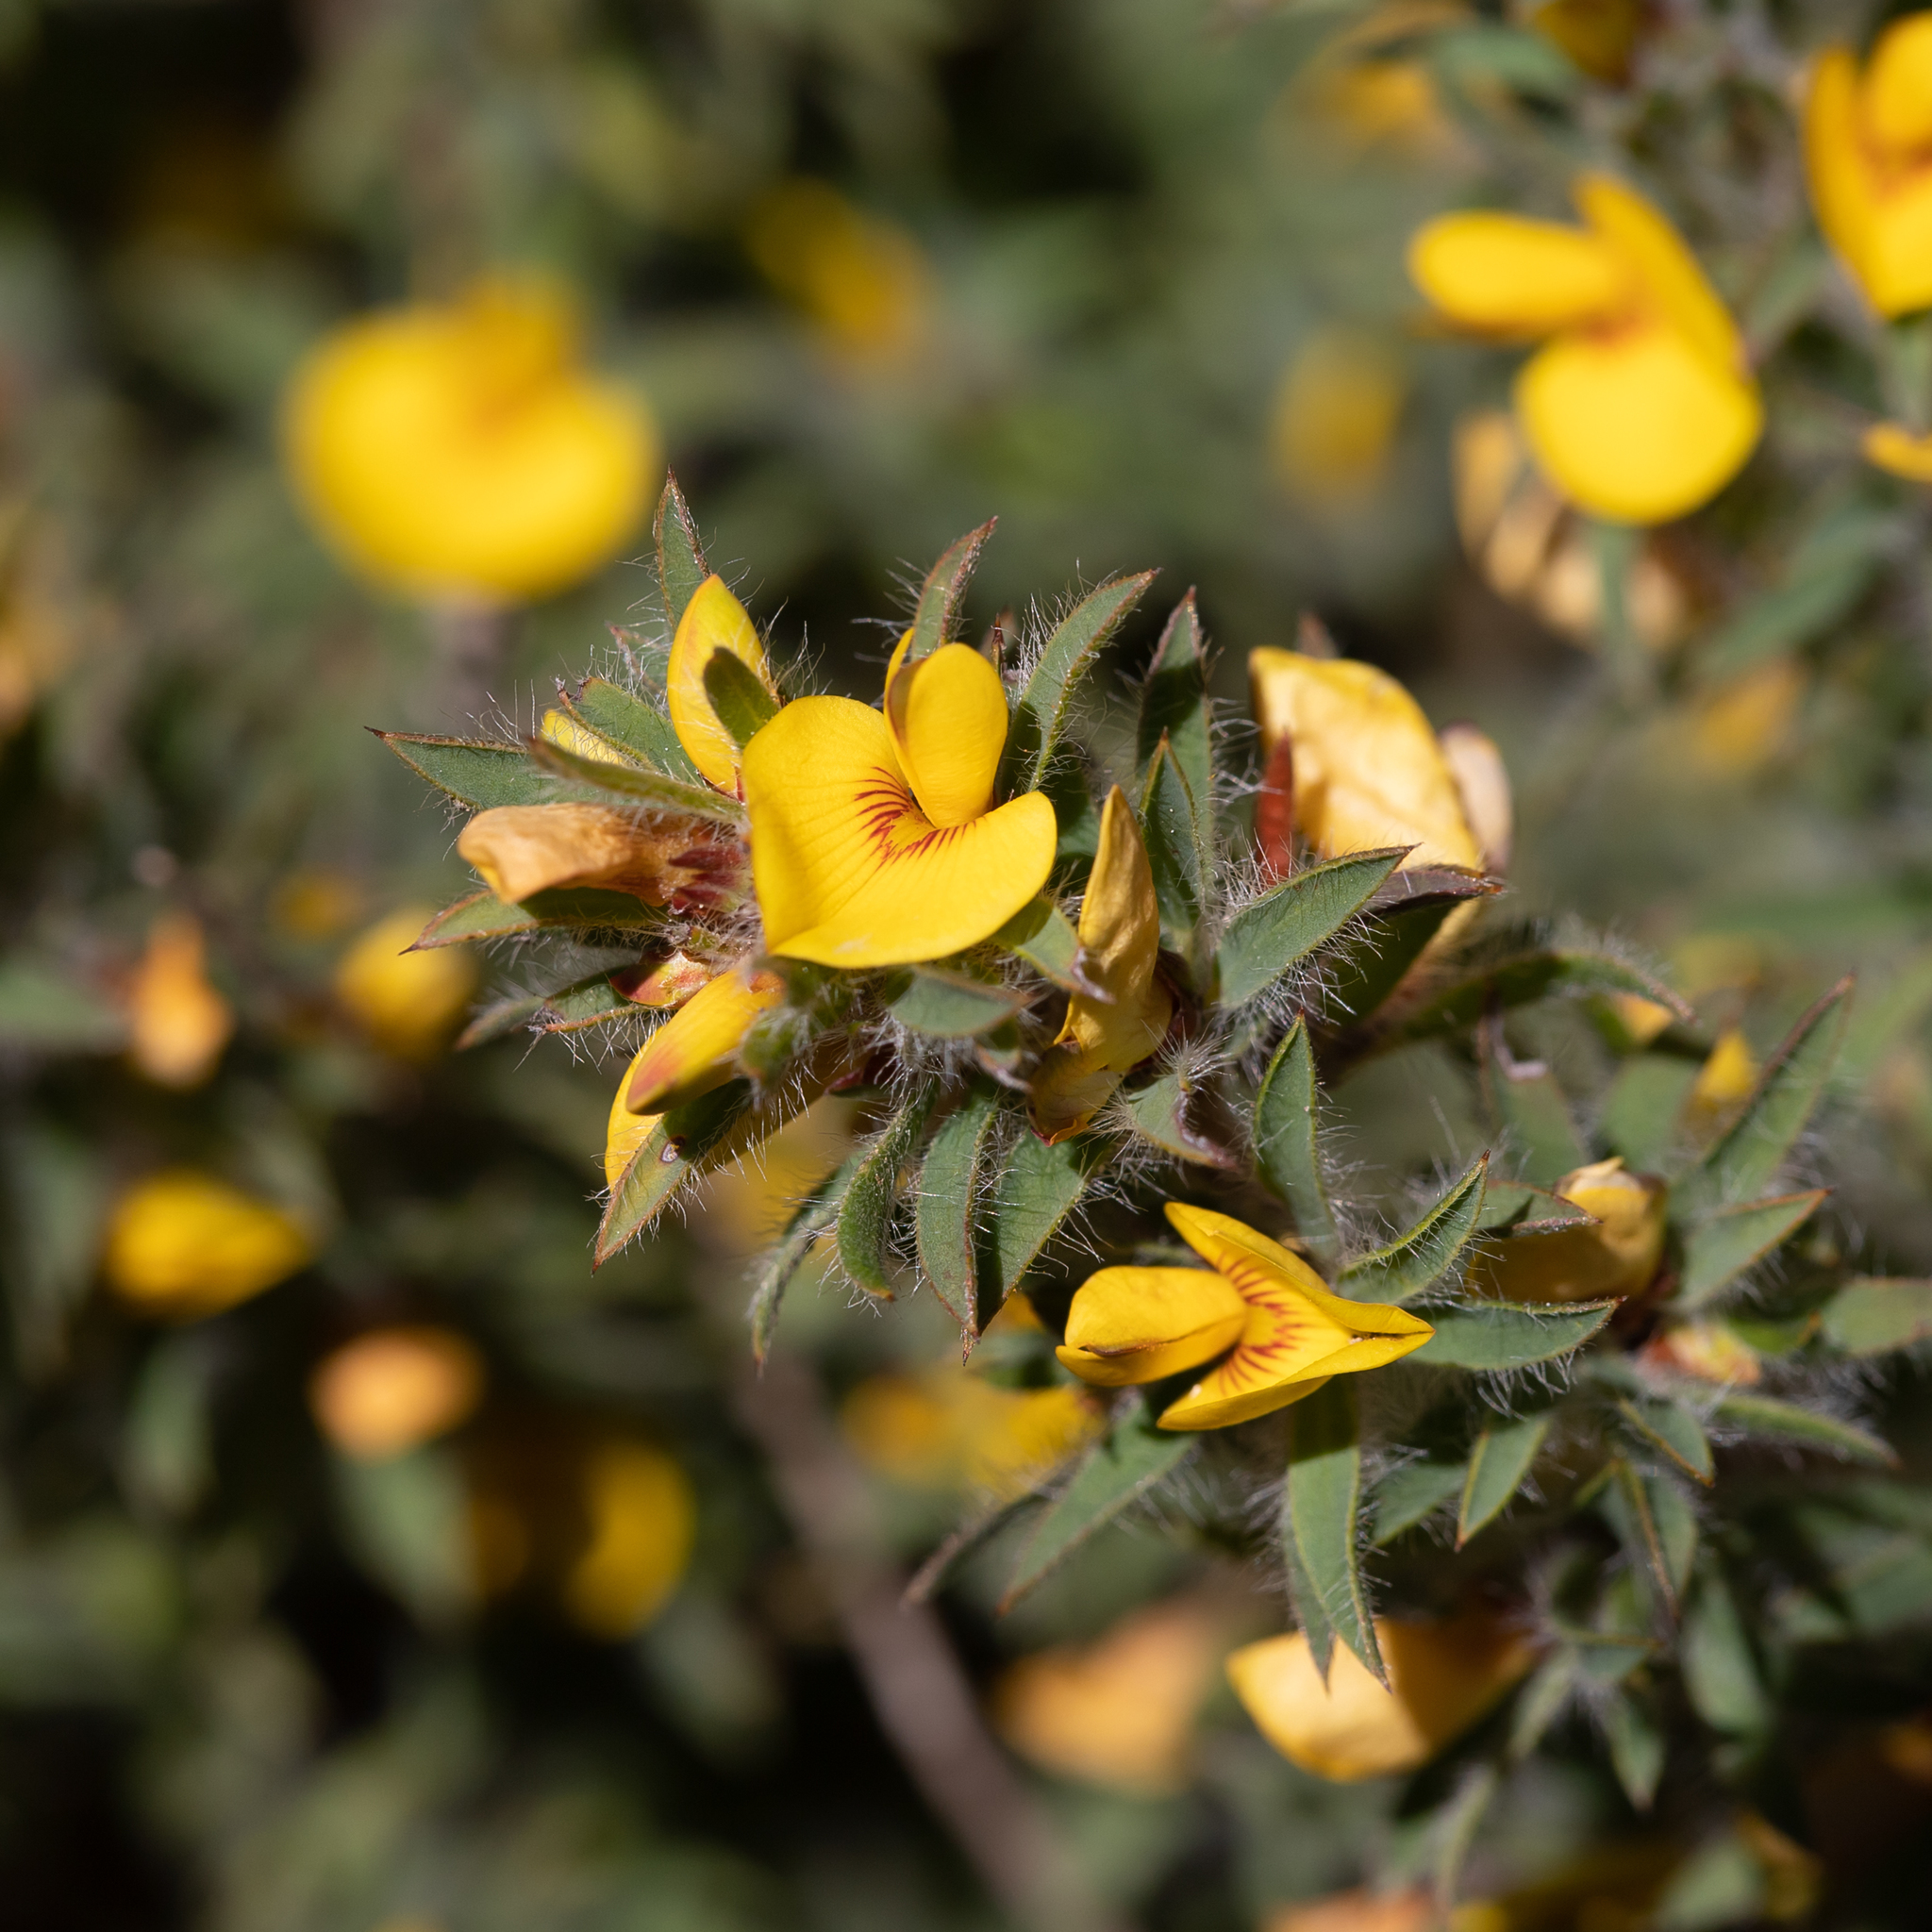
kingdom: Plantae
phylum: Tracheophyta
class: Magnoliopsida
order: Fabales
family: Fabaceae
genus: Pultenaea
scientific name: Pultenaea involucrata
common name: Mount lofty bush-pea
